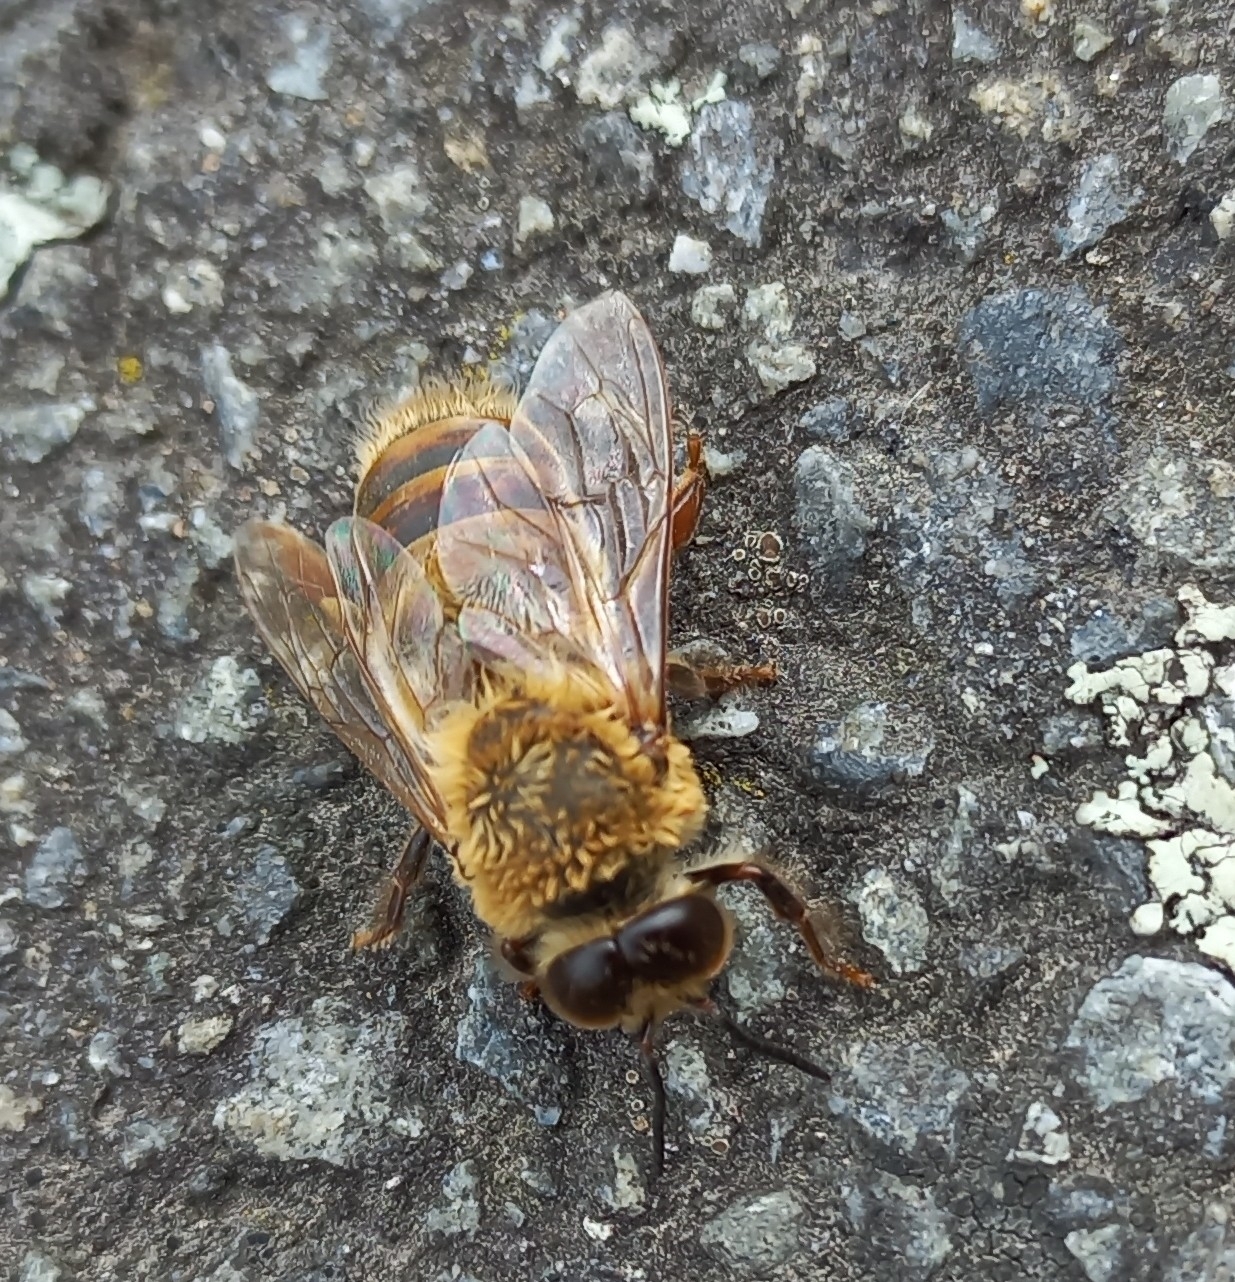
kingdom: Animalia
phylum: Arthropoda
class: Insecta
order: Hymenoptera
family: Apidae
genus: Apis
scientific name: Apis mellifera
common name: Honey bee
